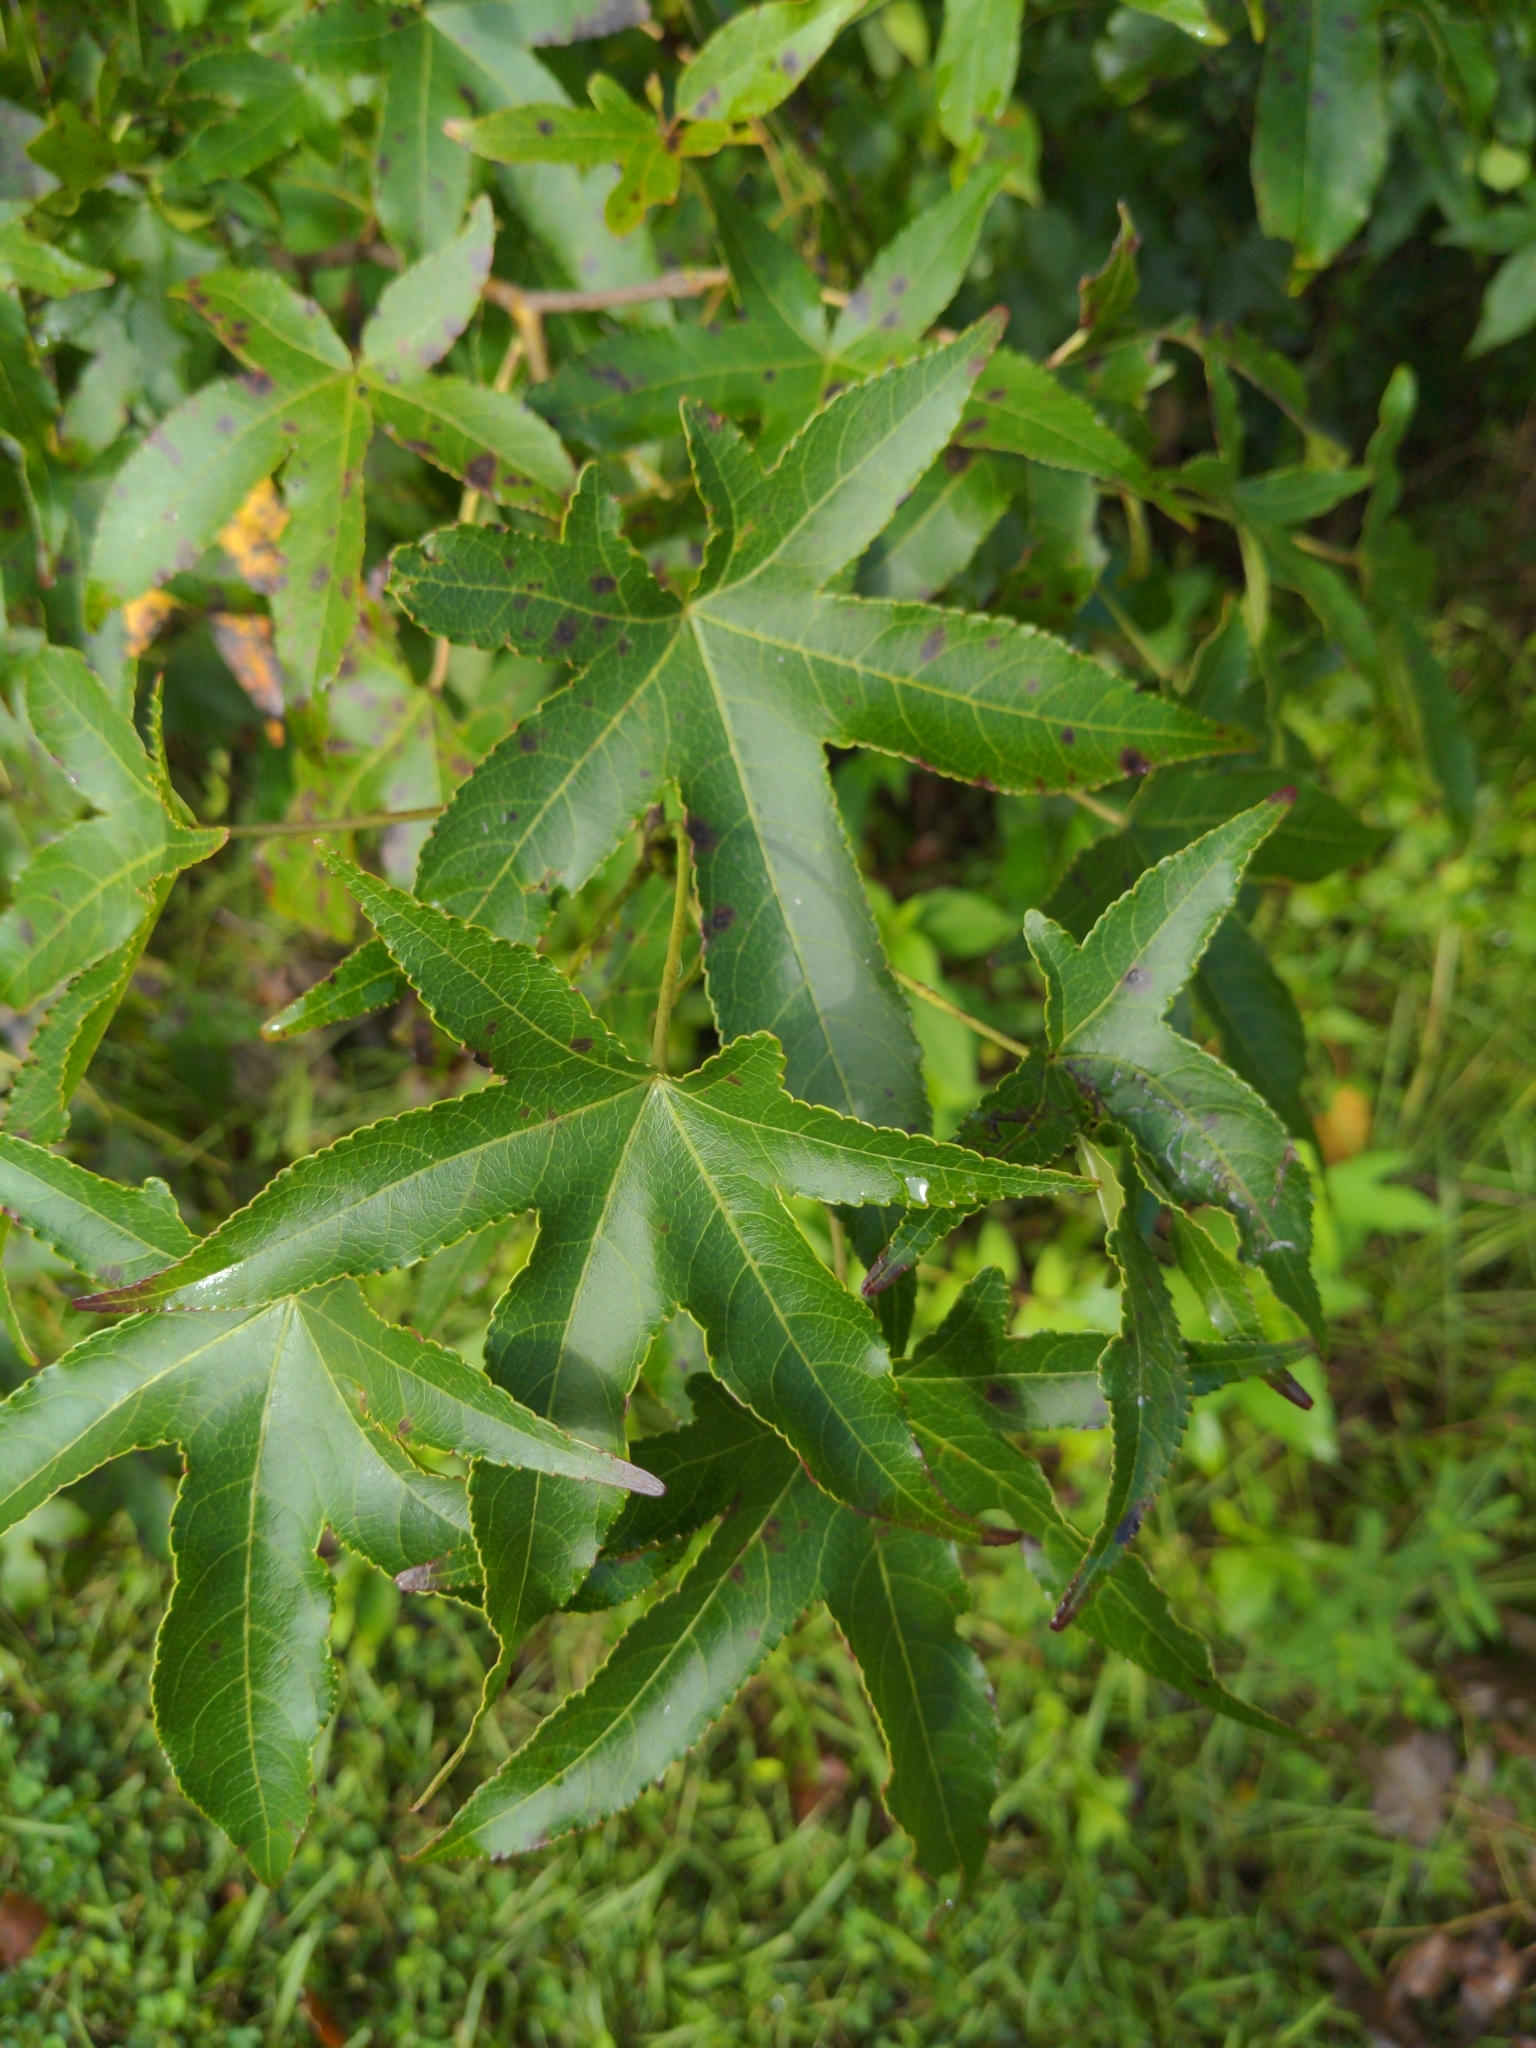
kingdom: Plantae
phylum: Tracheophyta
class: Magnoliopsida
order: Saxifragales
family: Altingiaceae
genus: Liquidambar
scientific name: Liquidambar styraciflua
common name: Sweet gum
